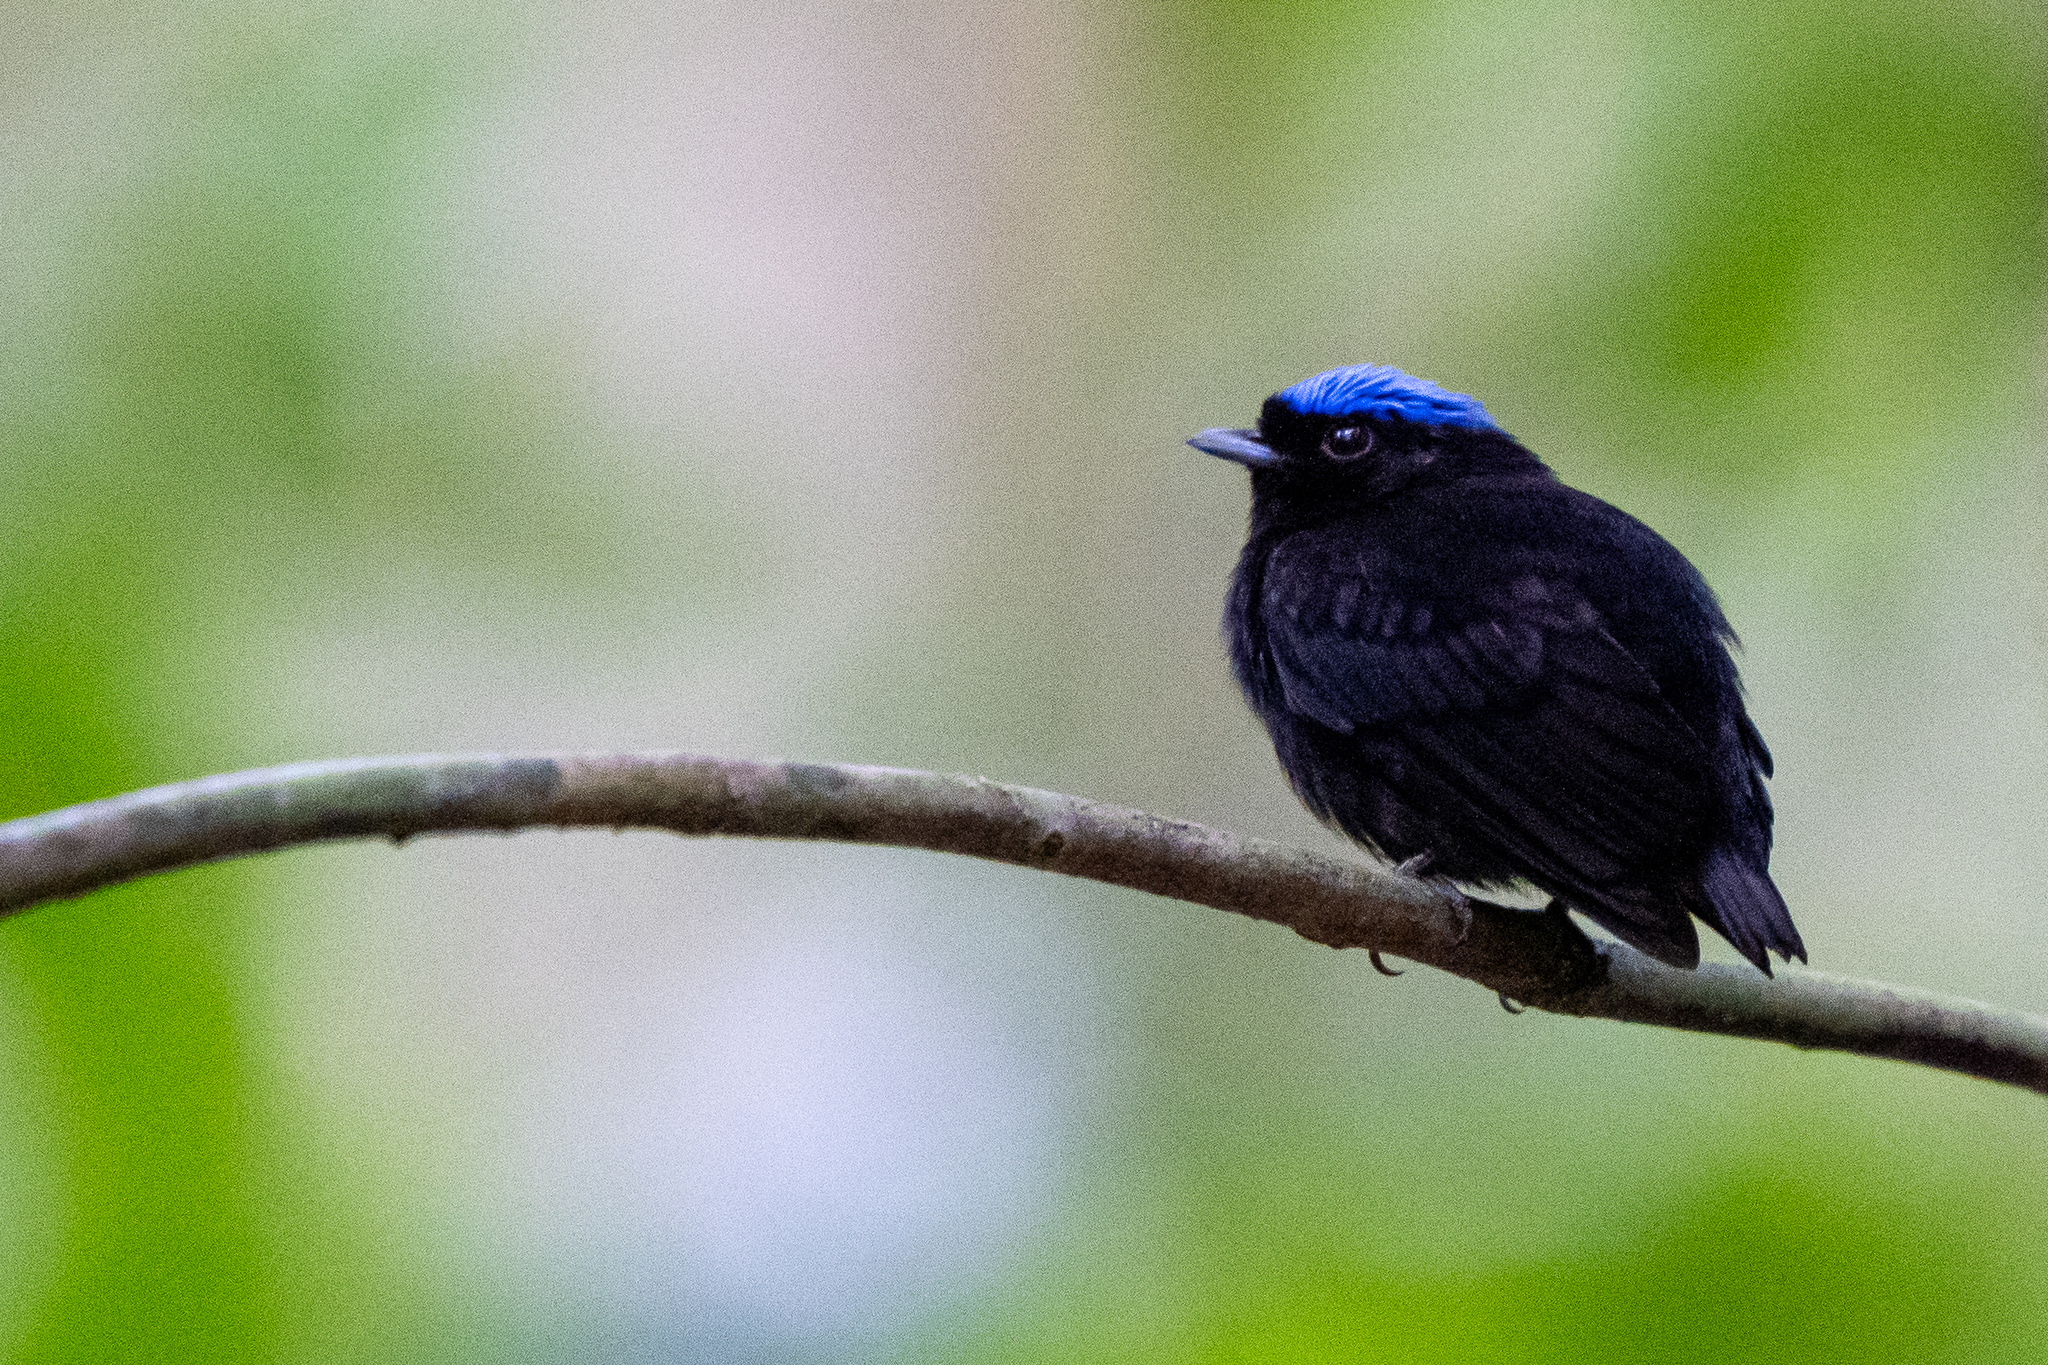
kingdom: Animalia
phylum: Chordata
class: Aves
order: Passeriformes
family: Pipridae
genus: Lepidothrix
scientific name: Lepidothrix coronata
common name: Blue-crowned manakin
